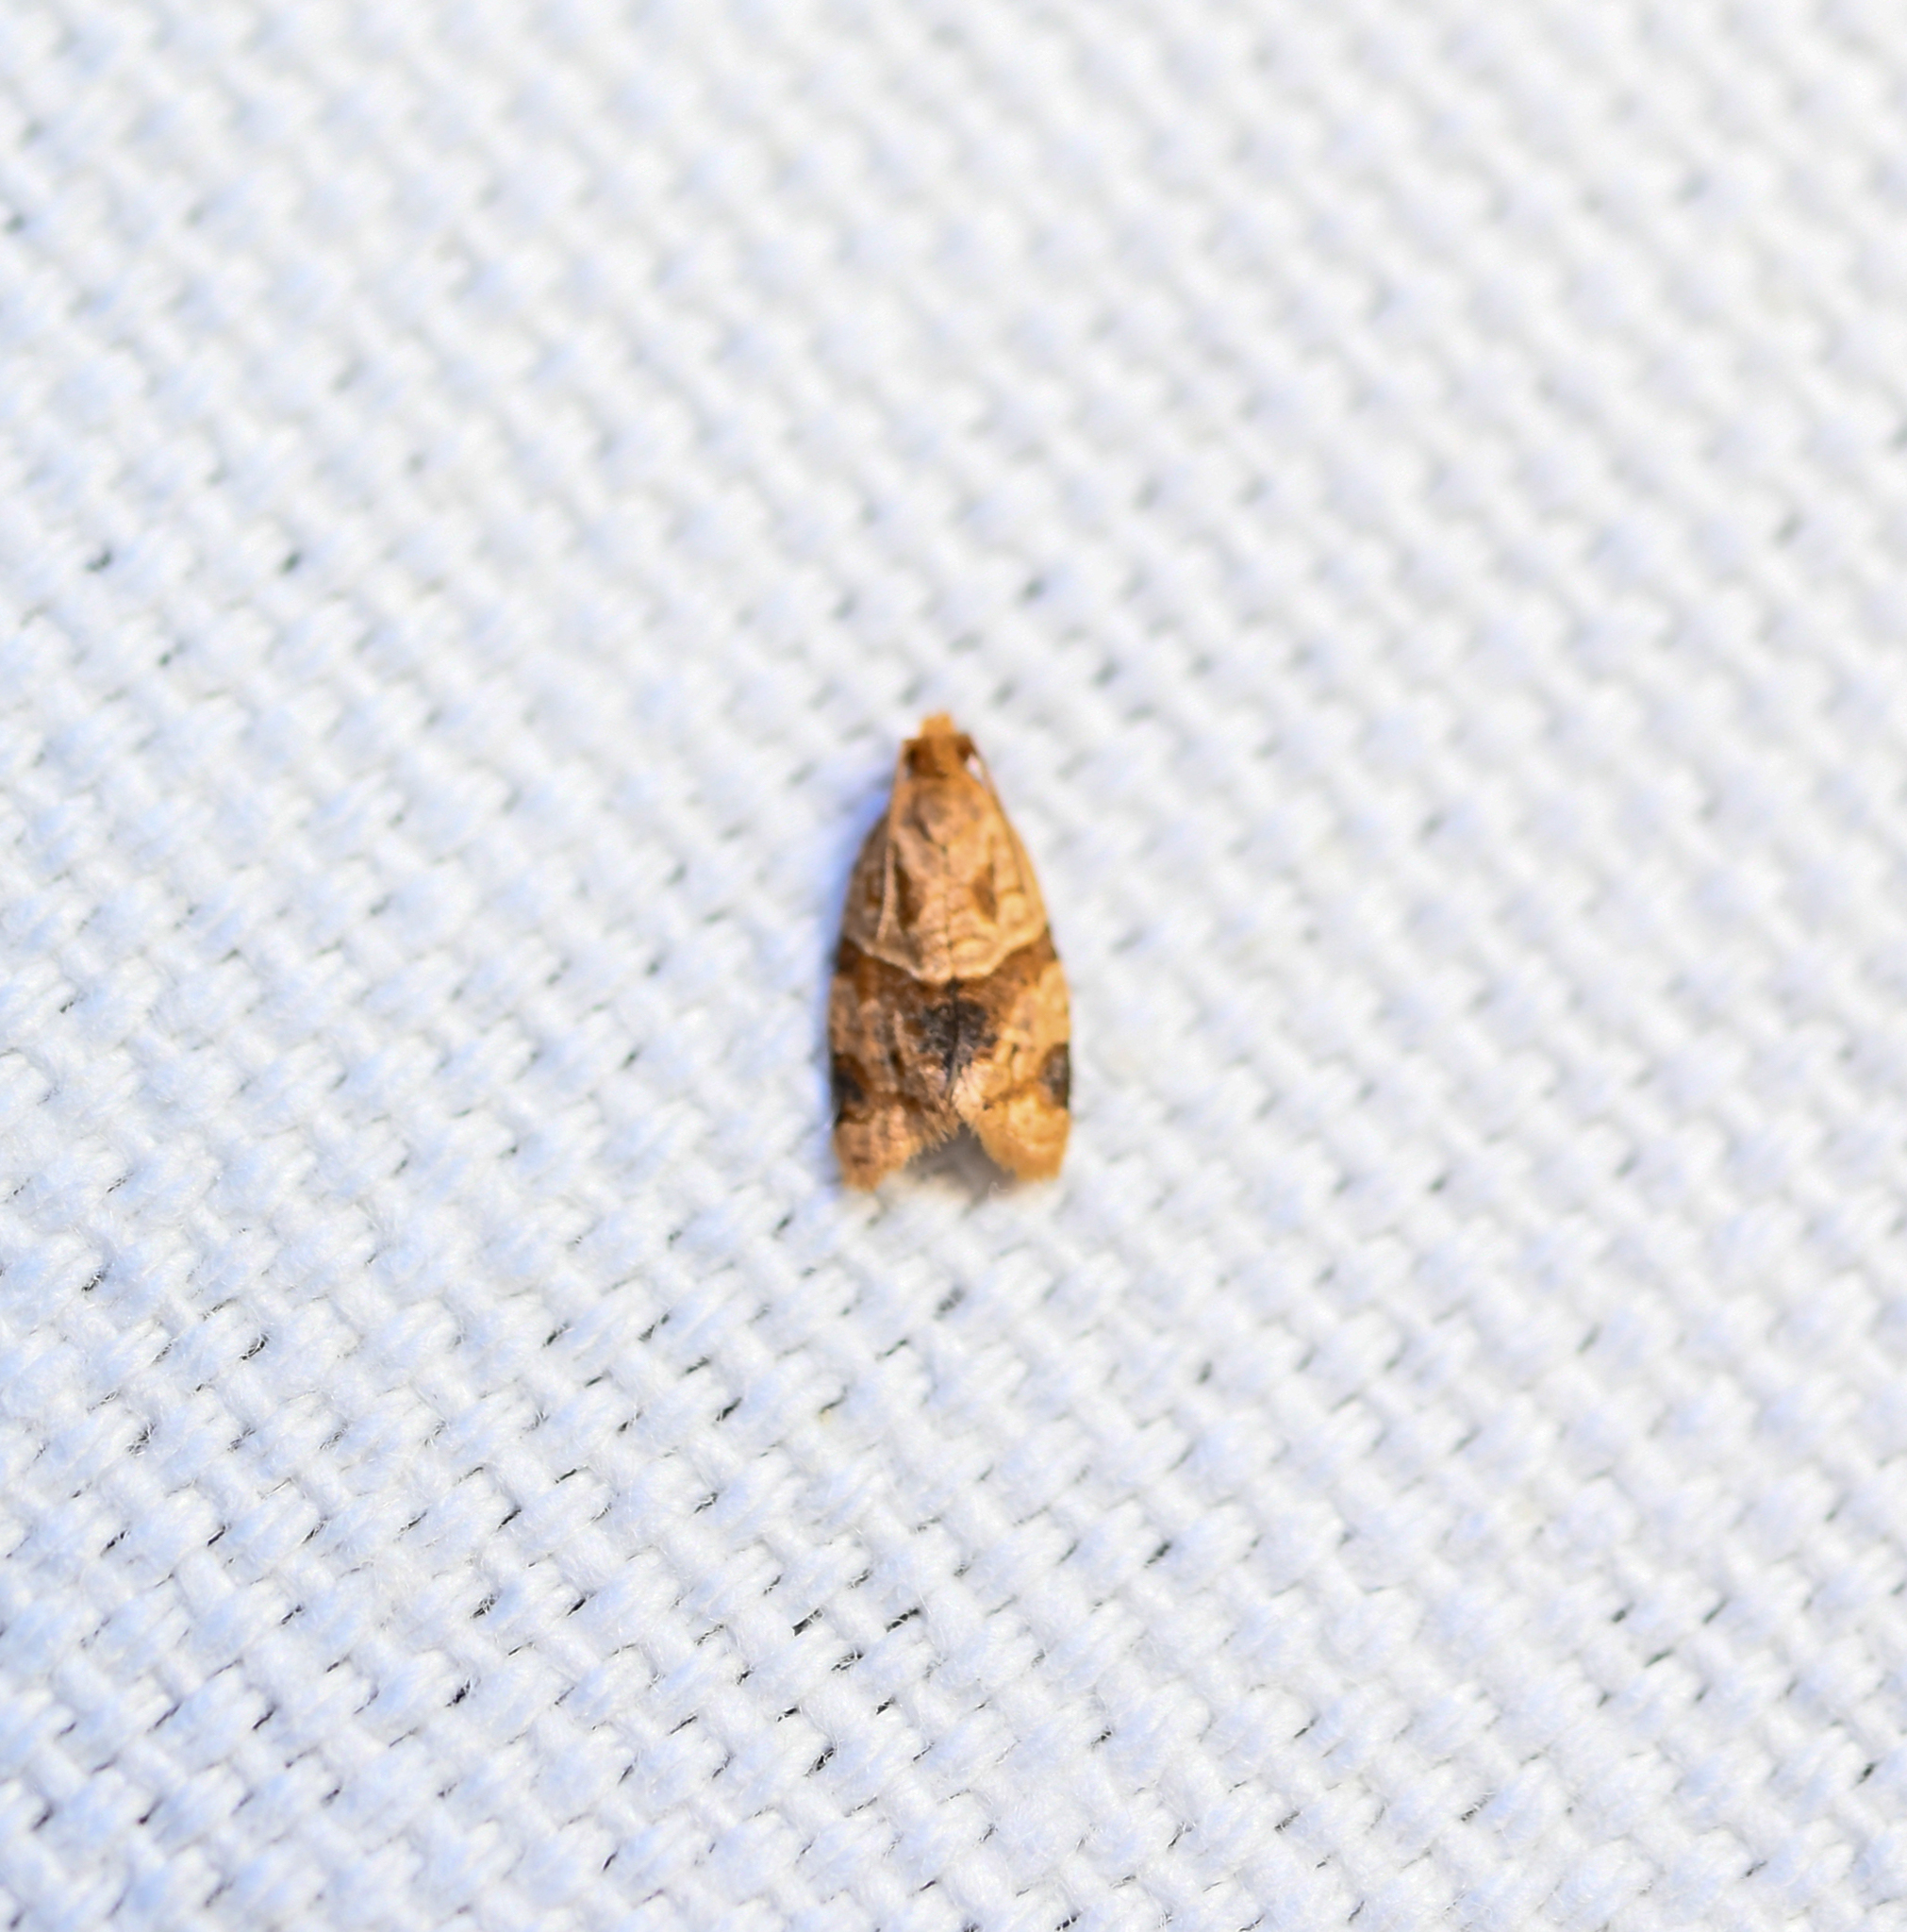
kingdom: Animalia
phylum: Arthropoda
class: Insecta
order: Lepidoptera
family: Tortricidae
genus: Clepsis
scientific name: Clepsis peritana
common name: Garden tortrix
